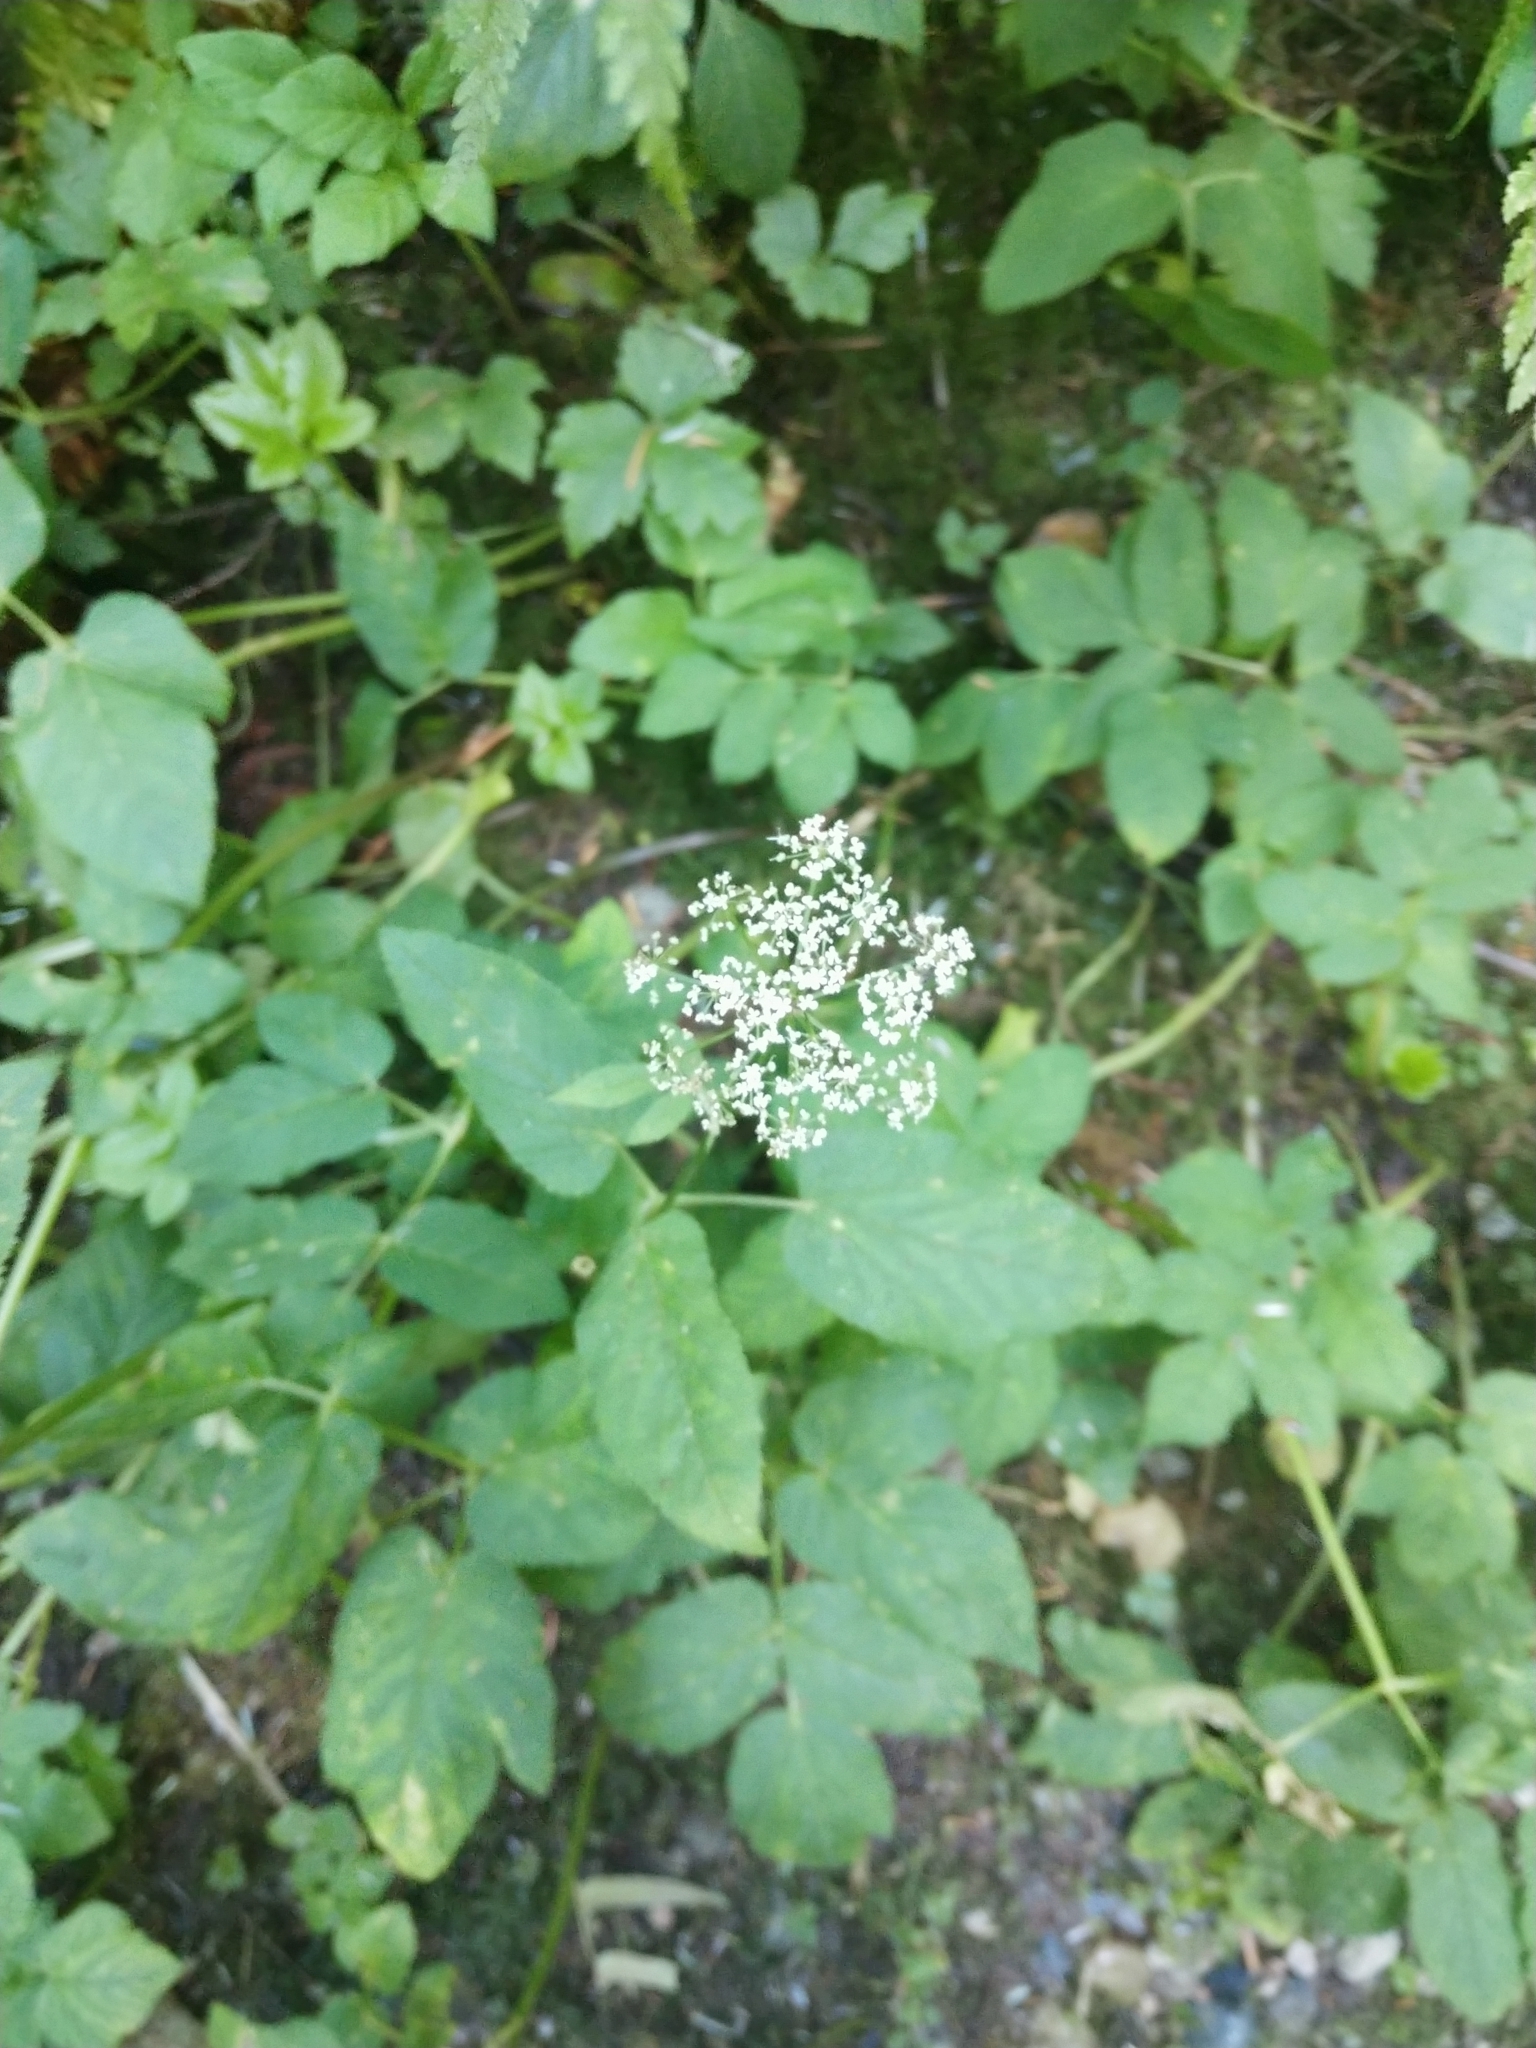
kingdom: Plantae
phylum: Tracheophyta
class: Magnoliopsida
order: Apiales
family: Apiaceae
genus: Aegopodium
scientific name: Aegopodium podagraria
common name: Ground-elder
